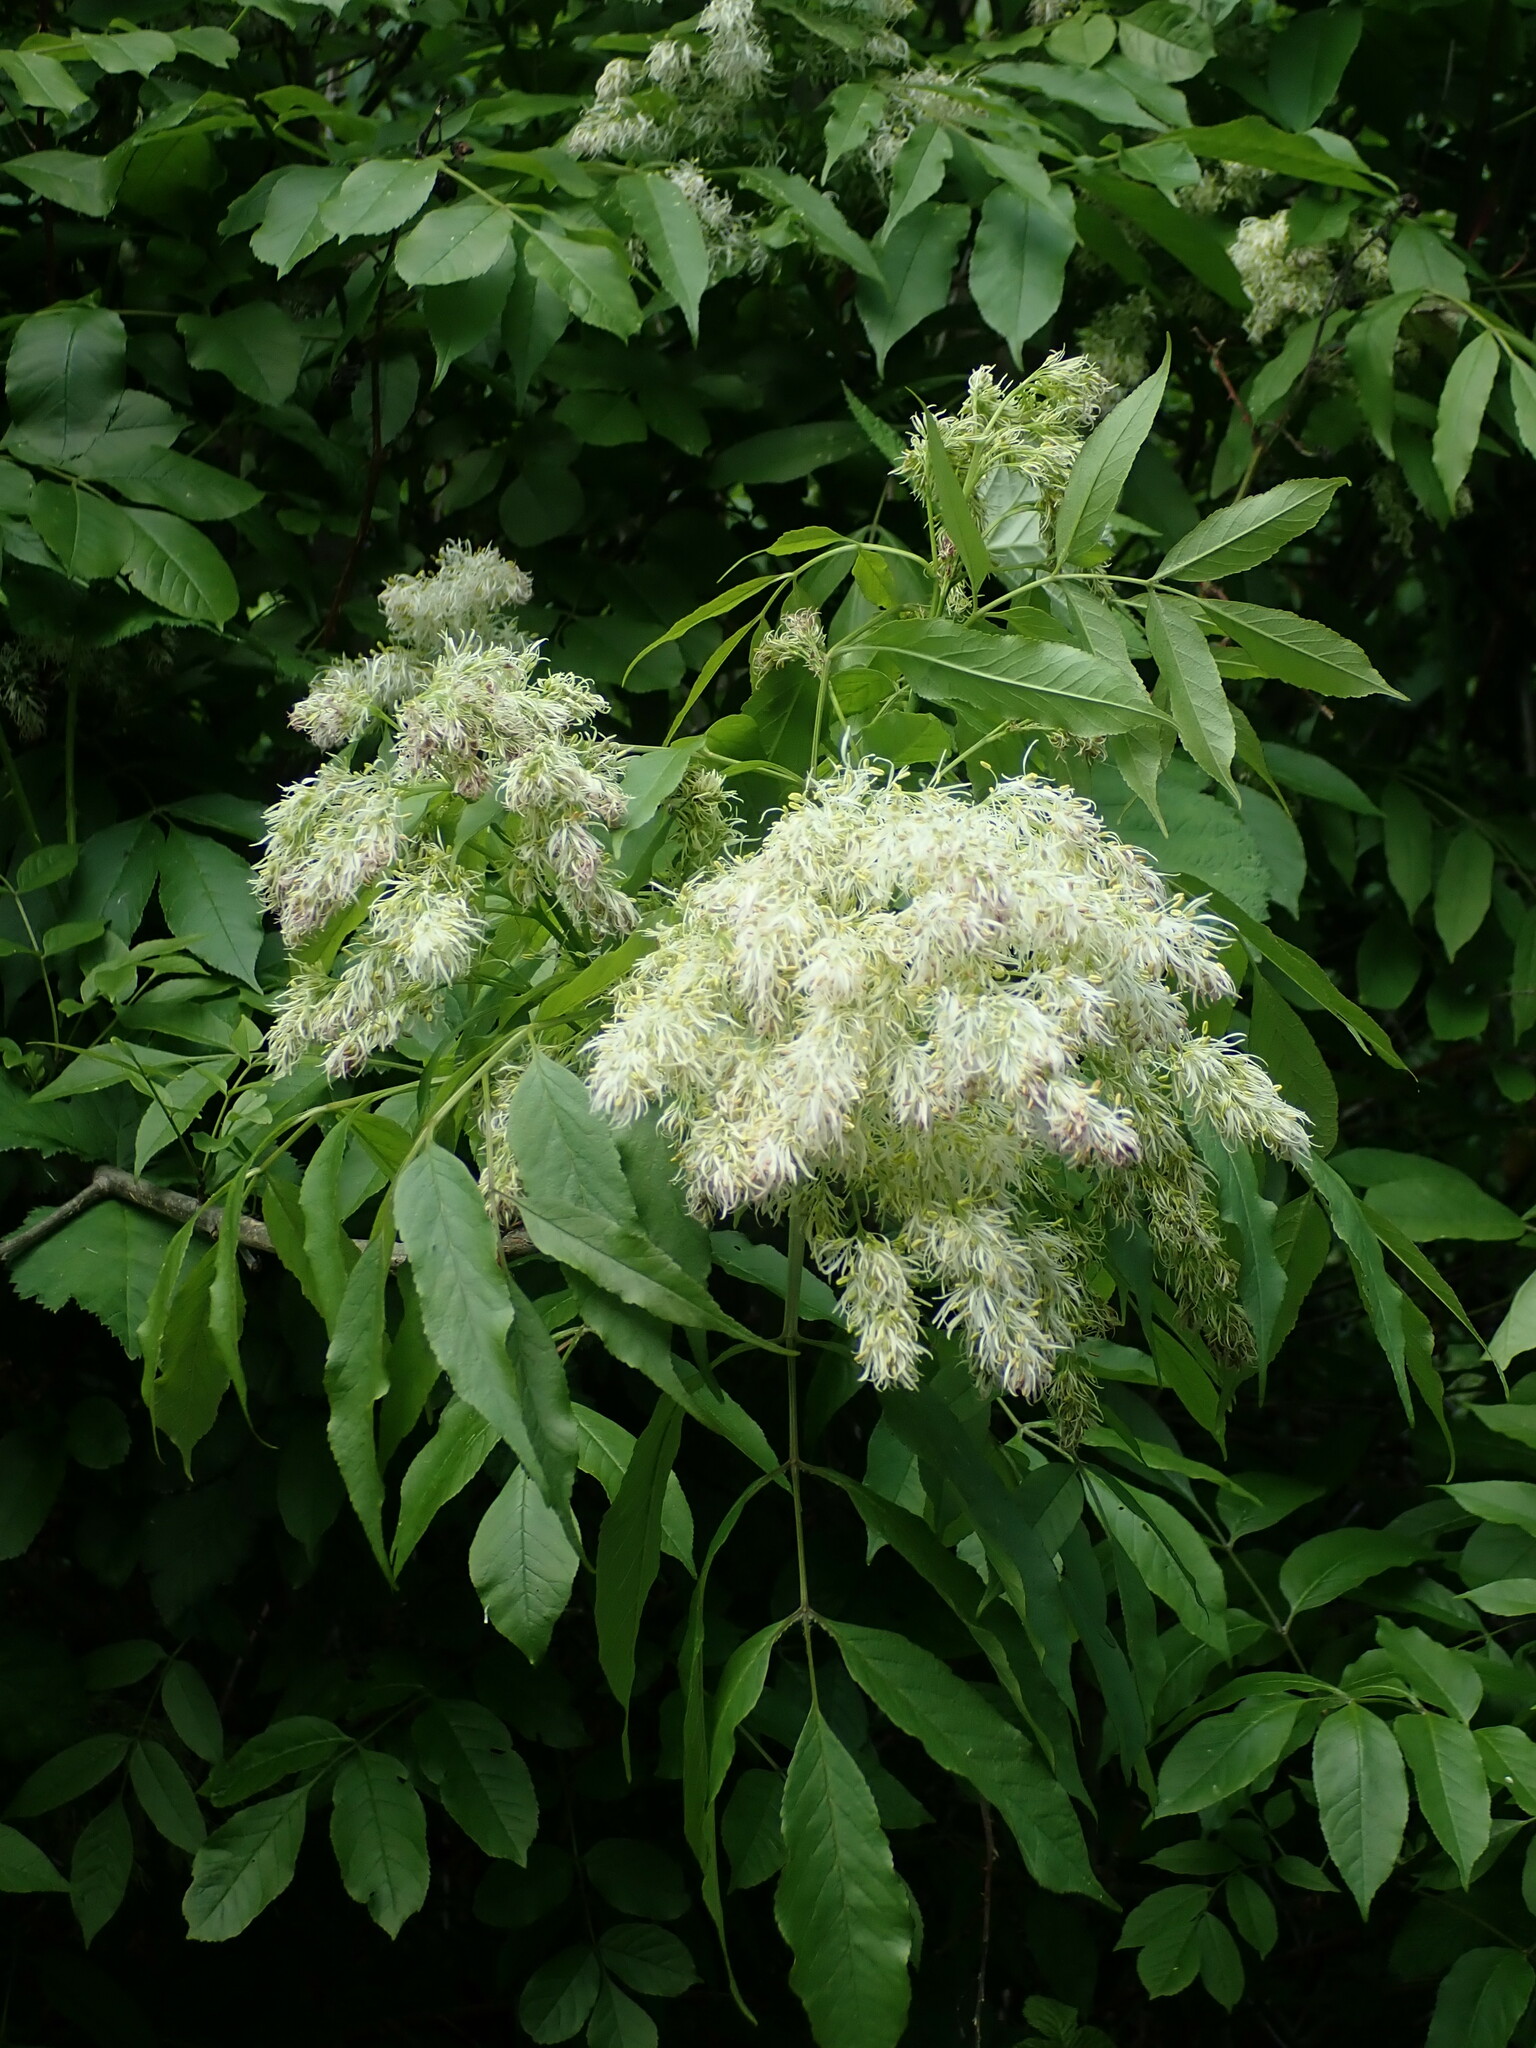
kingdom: Plantae
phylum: Tracheophyta
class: Magnoliopsida
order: Lamiales
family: Oleaceae
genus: Fraxinus
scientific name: Fraxinus ornus
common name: Manna ash
